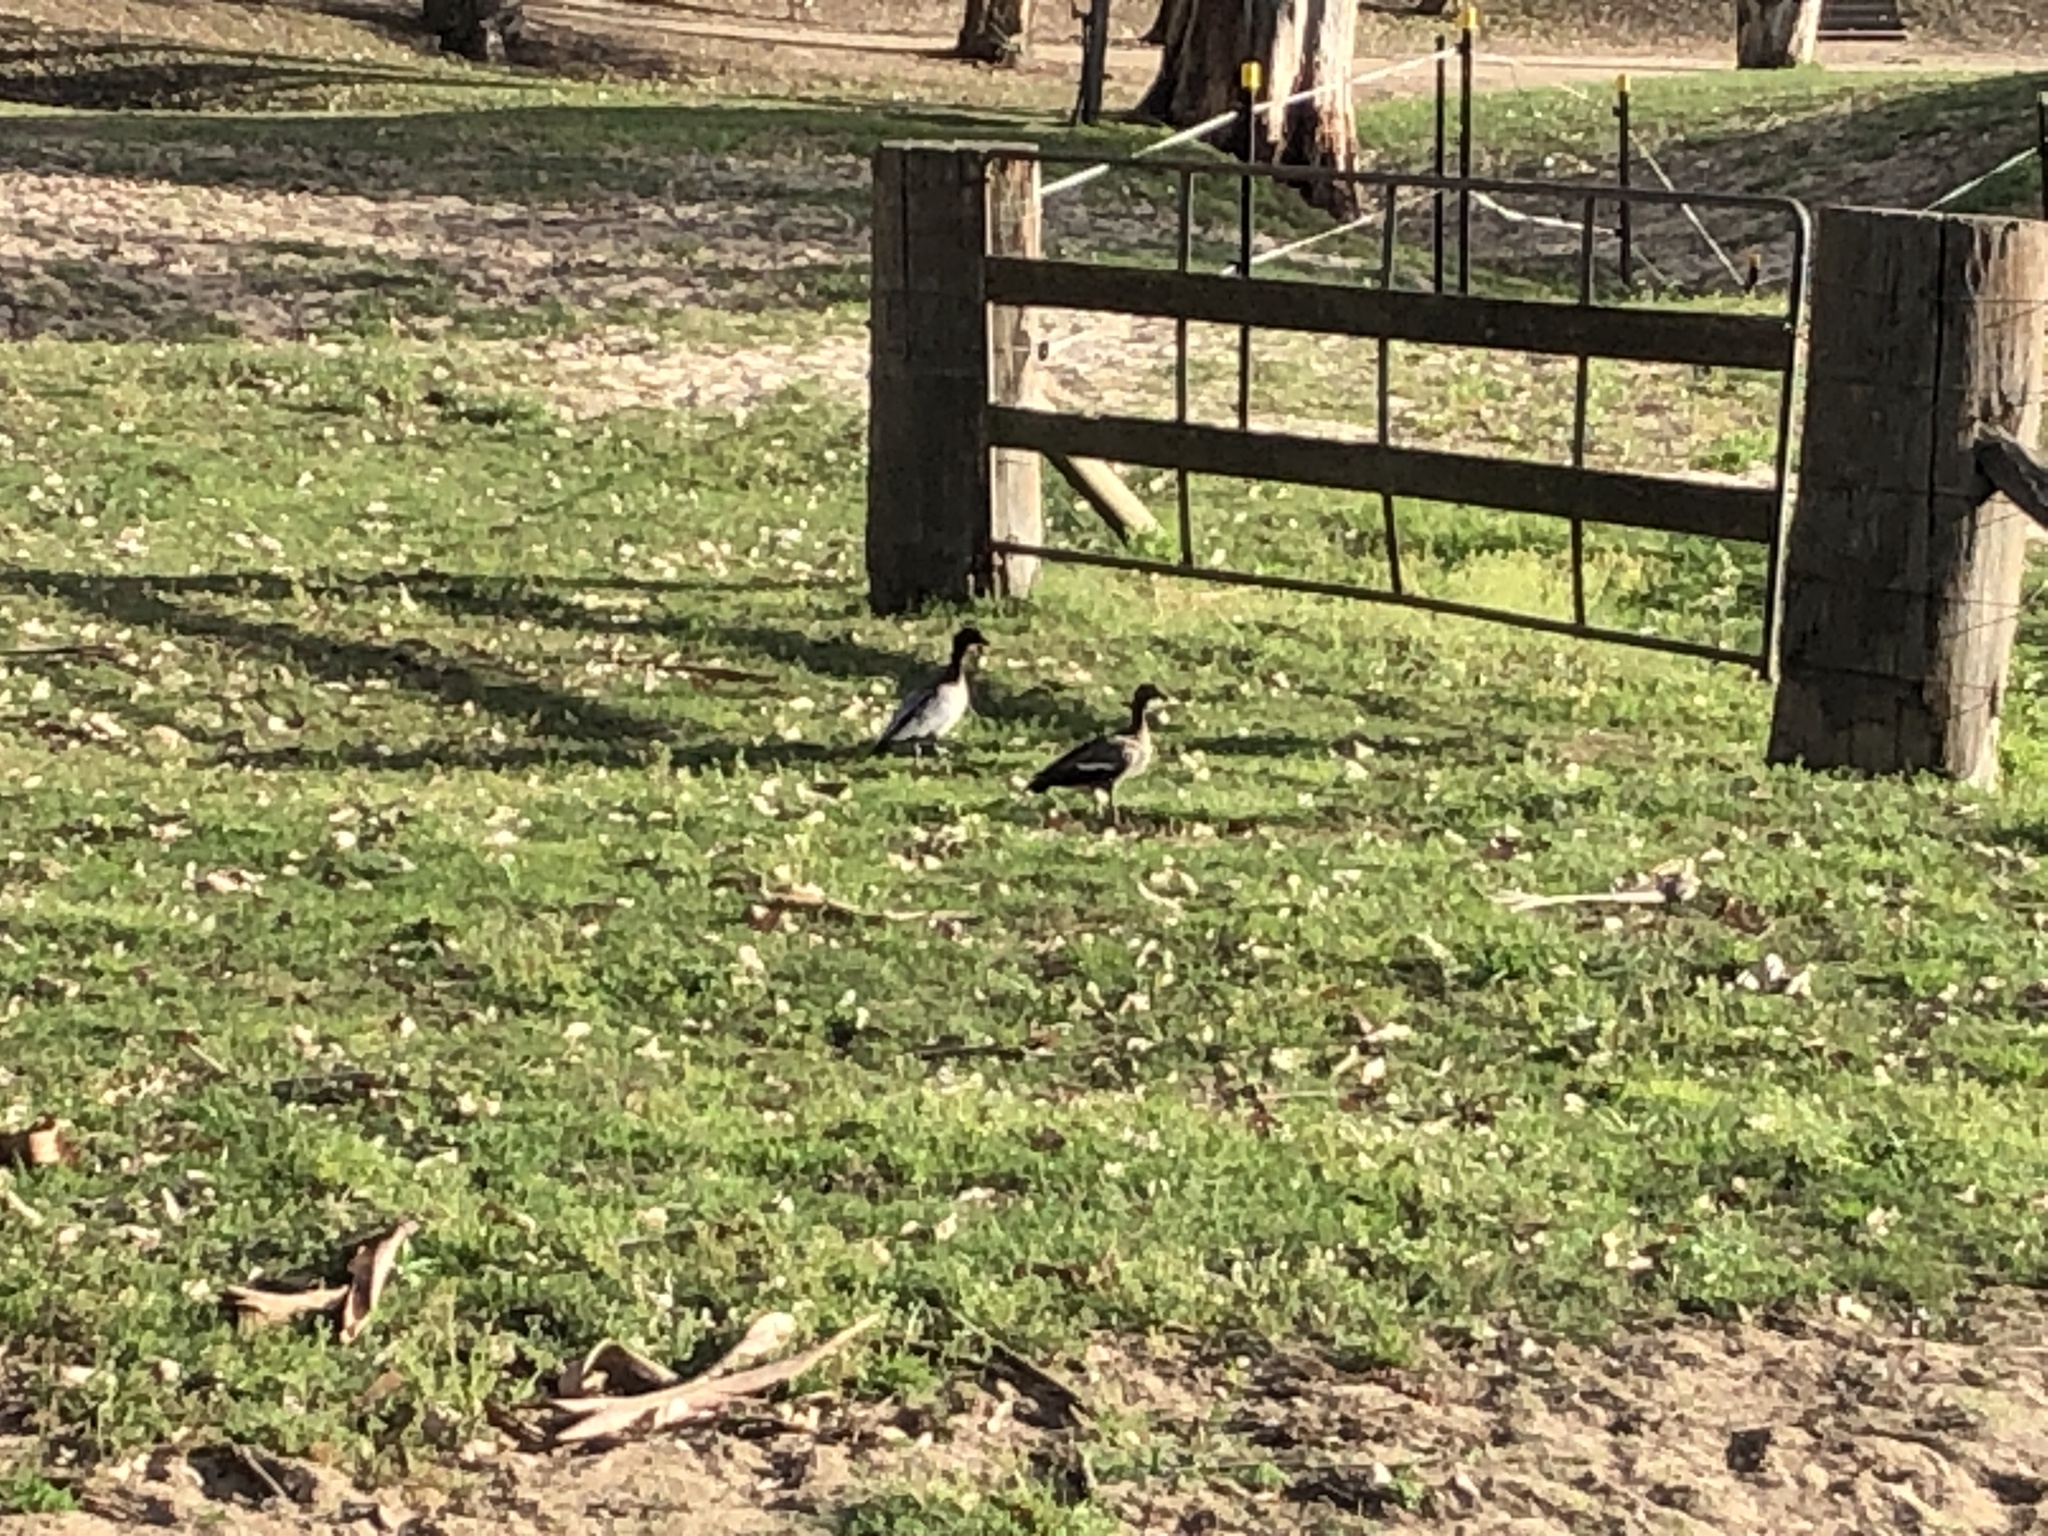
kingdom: Animalia
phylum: Chordata
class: Aves
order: Anseriformes
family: Anatidae
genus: Chenonetta
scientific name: Chenonetta jubata
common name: Maned duck
